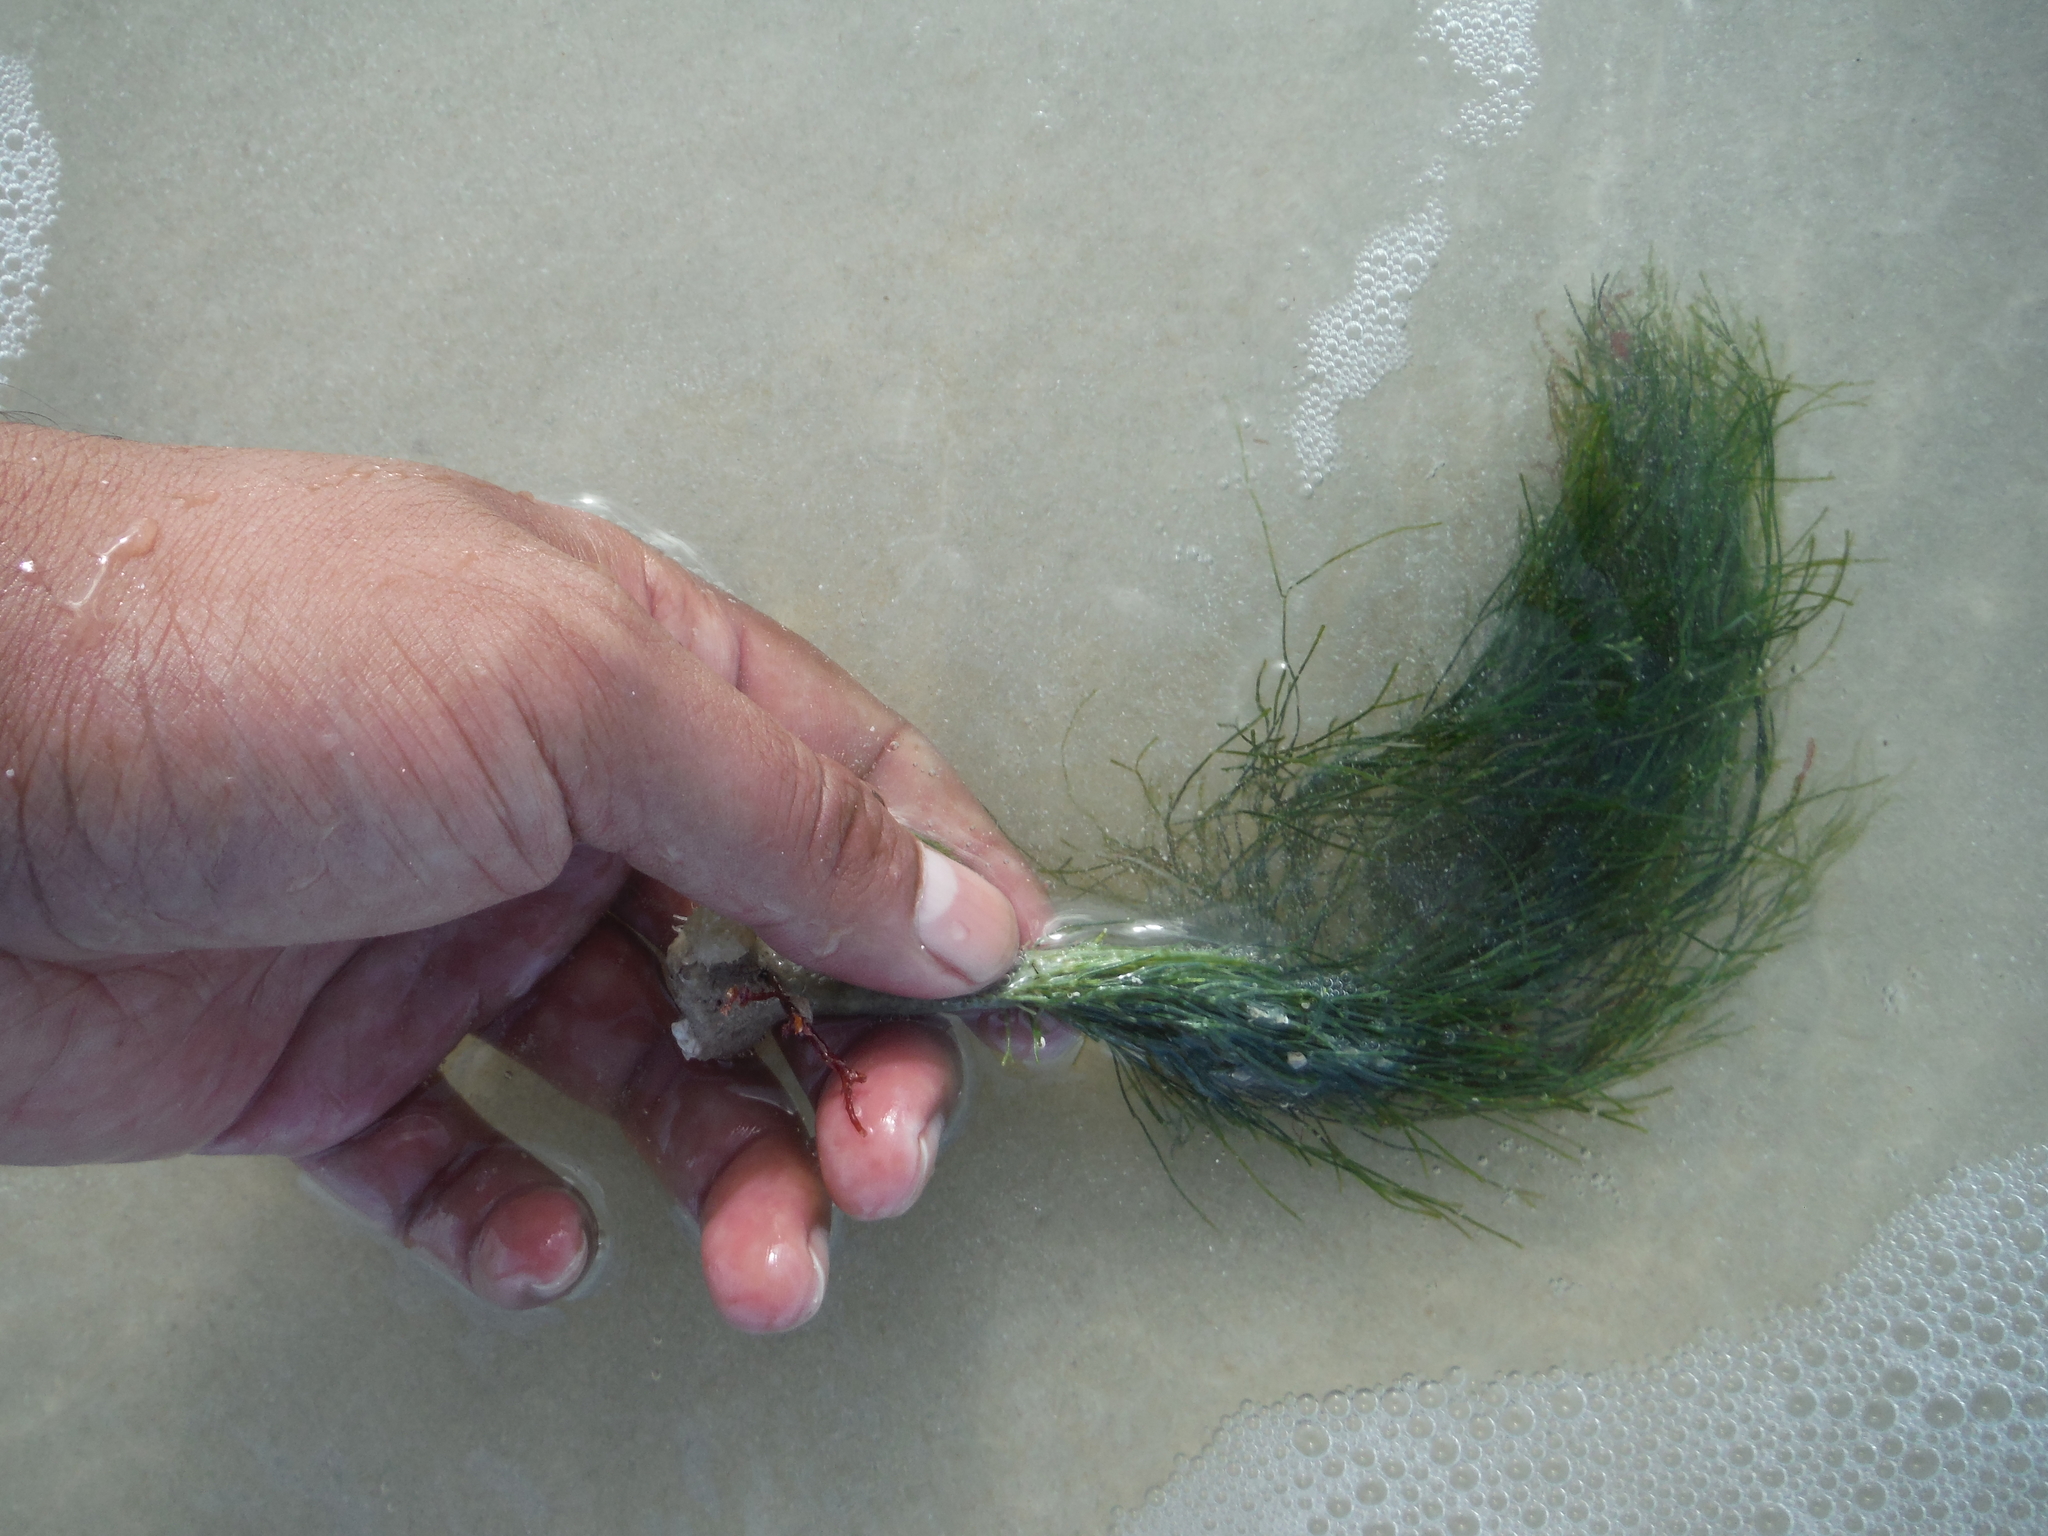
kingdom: Plantae
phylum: Chlorophyta
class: Ulvophyceae
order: Bryopsidales
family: Udoteaceae
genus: Penicillus
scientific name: Penicillus dumetosus
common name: Bristle ball bush
